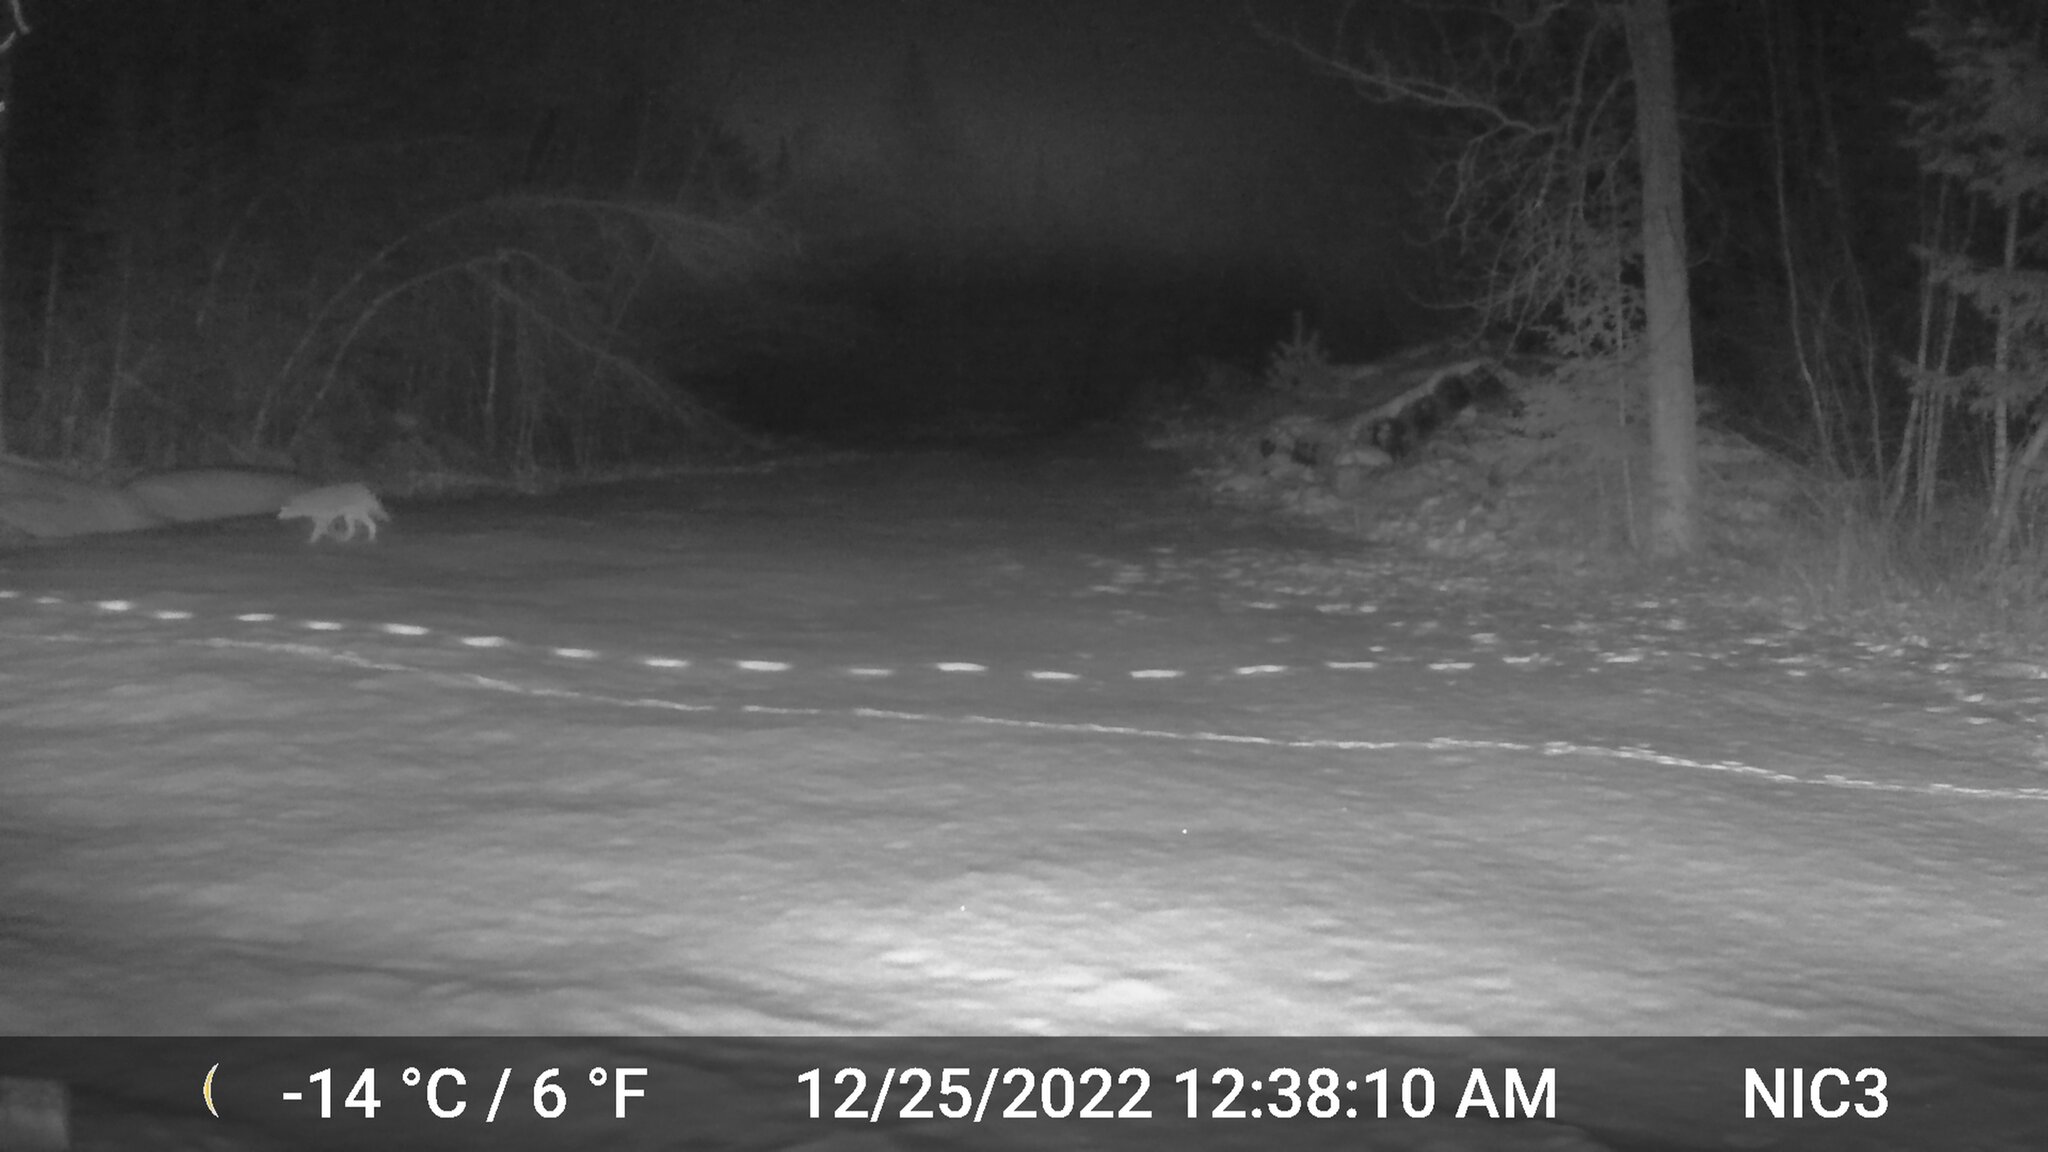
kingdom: Animalia
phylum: Chordata
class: Mammalia
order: Carnivora
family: Canidae
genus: Canis
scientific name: Canis latrans
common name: Coyote
